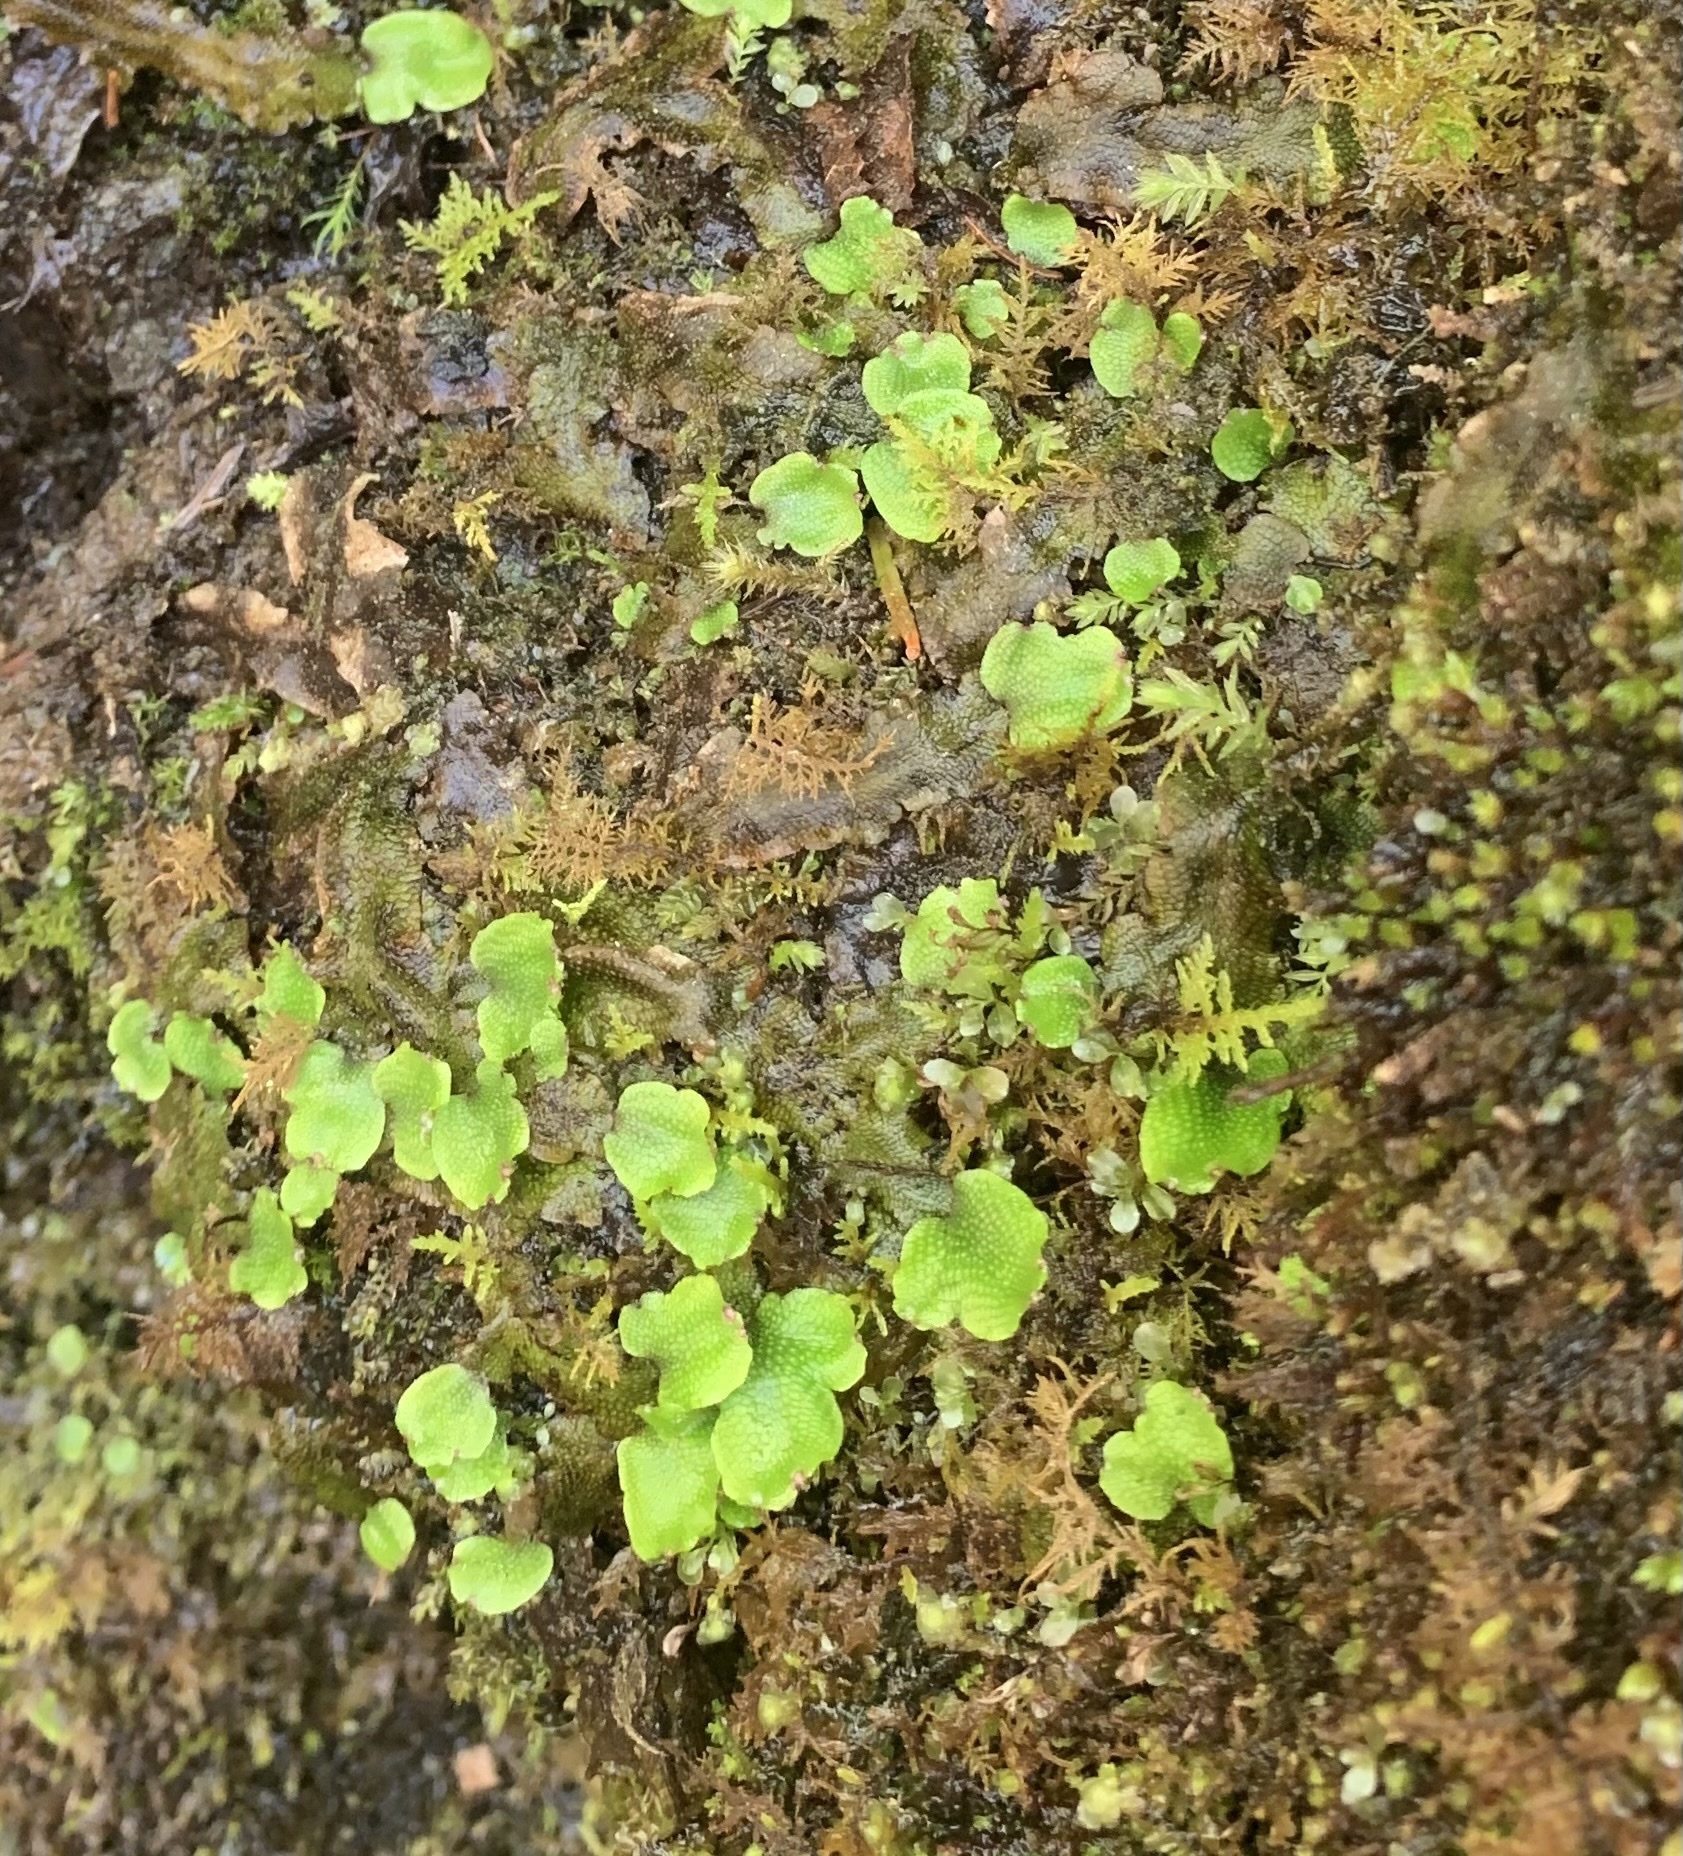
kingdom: Plantae
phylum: Marchantiophyta
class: Marchantiopsida
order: Marchantiales
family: Conocephalaceae
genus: Conocephalum
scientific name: Conocephalum salebrosum
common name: Cat-tongue liverwort
